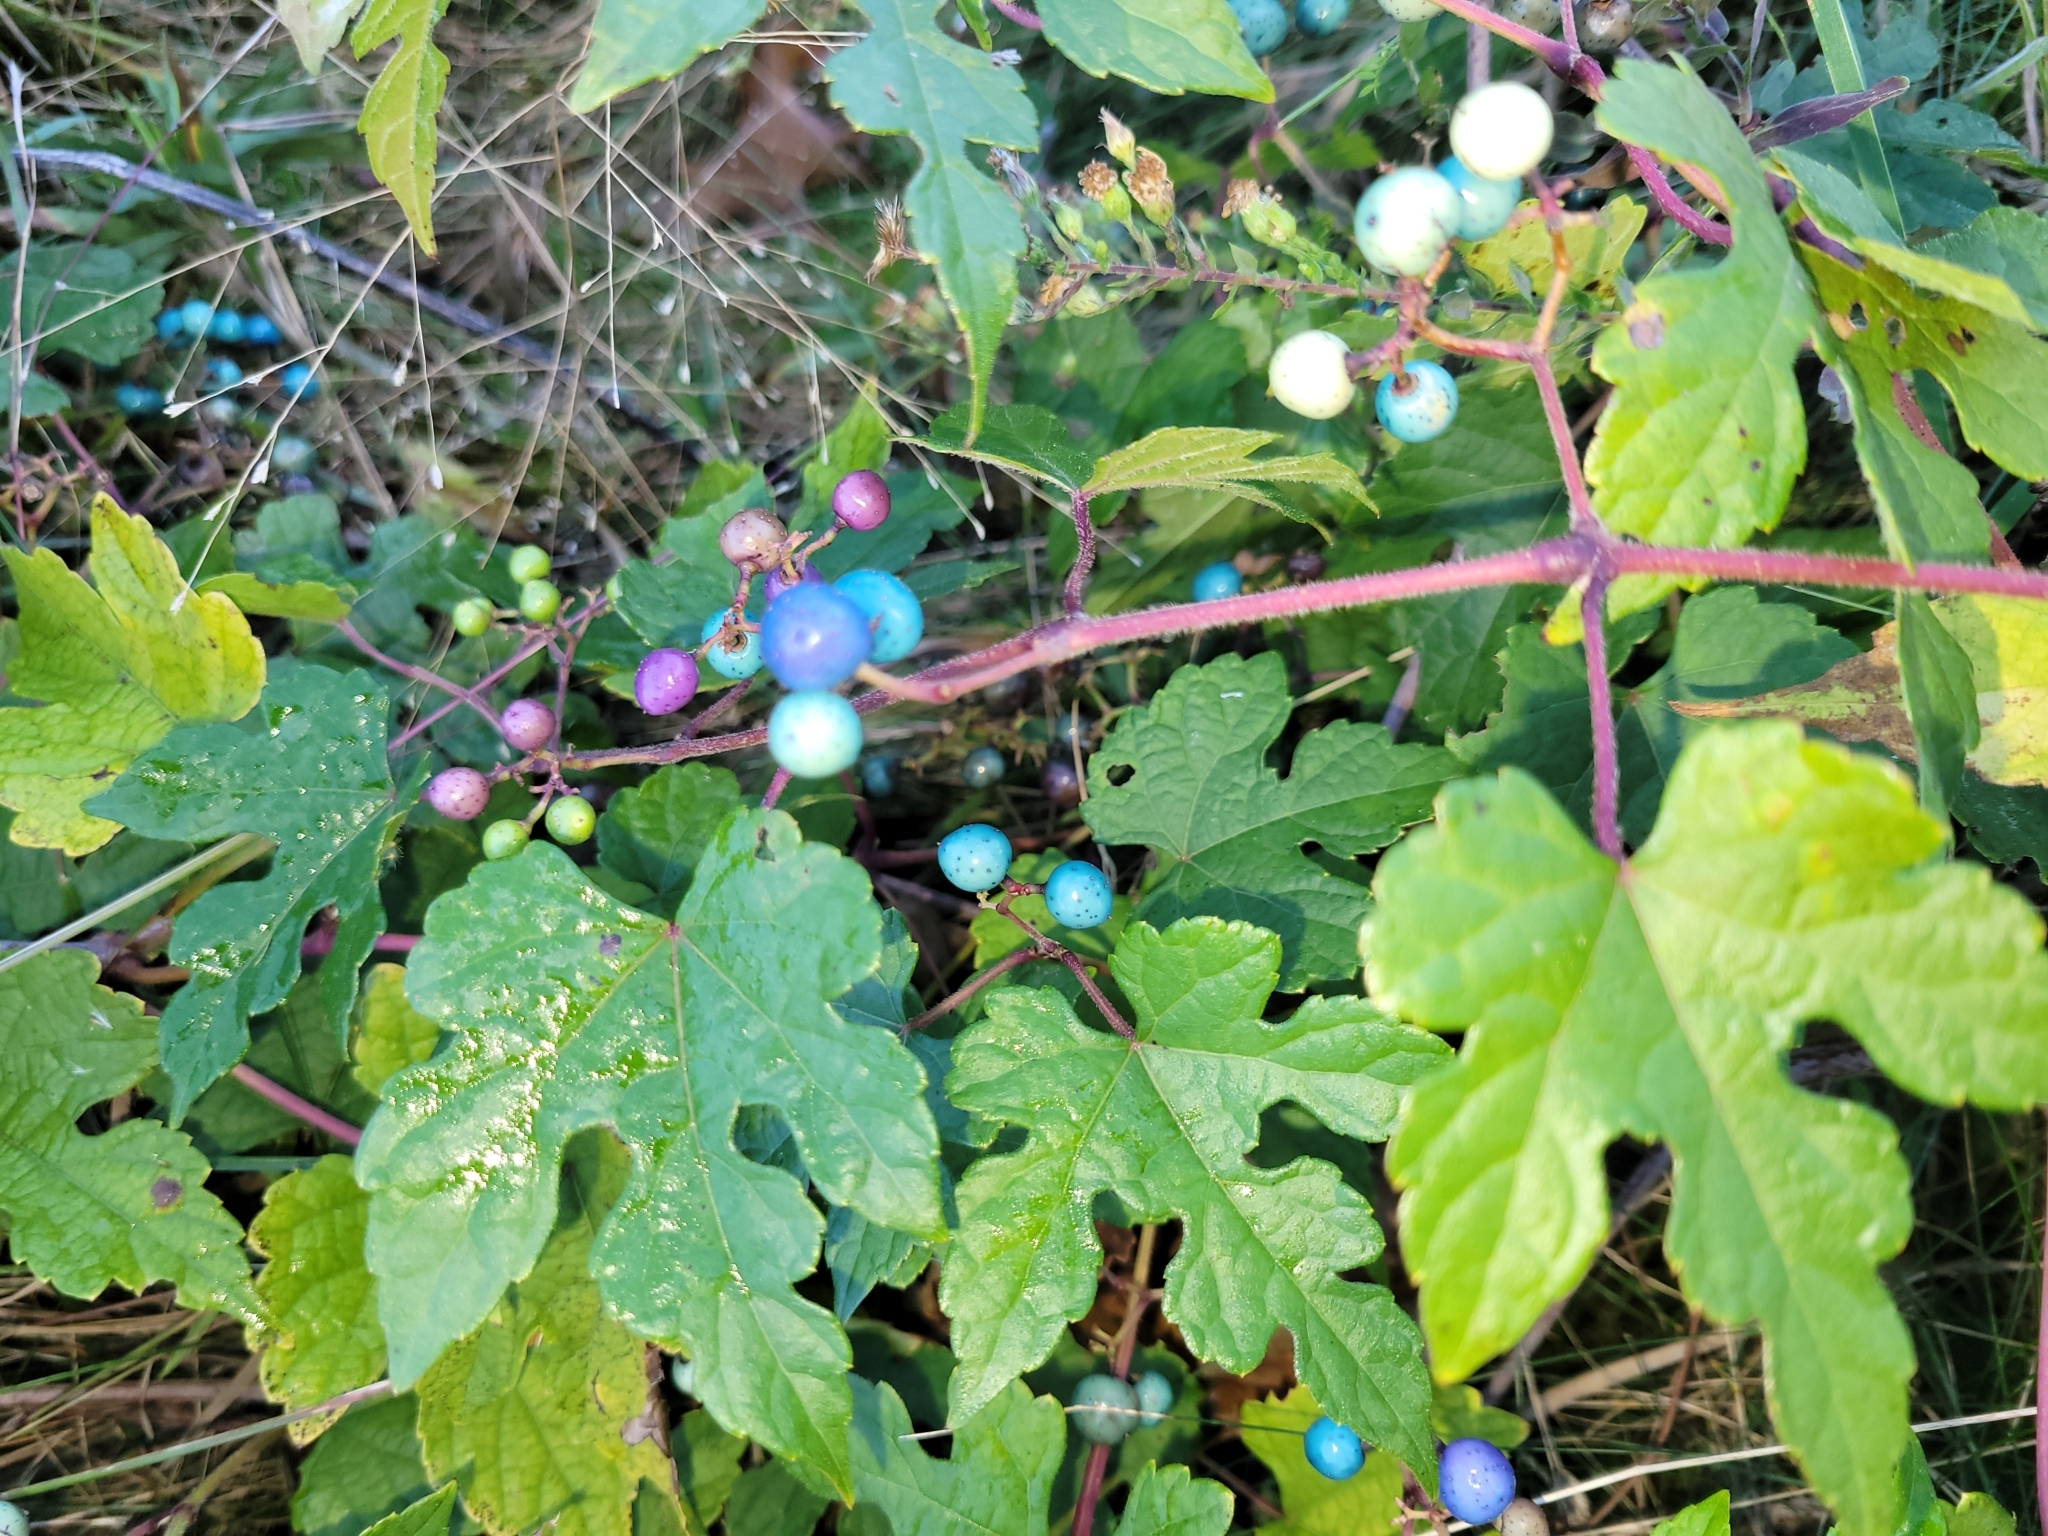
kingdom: Plantae
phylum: Tracheophyta
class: Magnoliopsida
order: Vitales
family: Vitaceae
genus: Ampelopsis
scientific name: Ampelopsis glandulosa
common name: Amur peppervine
